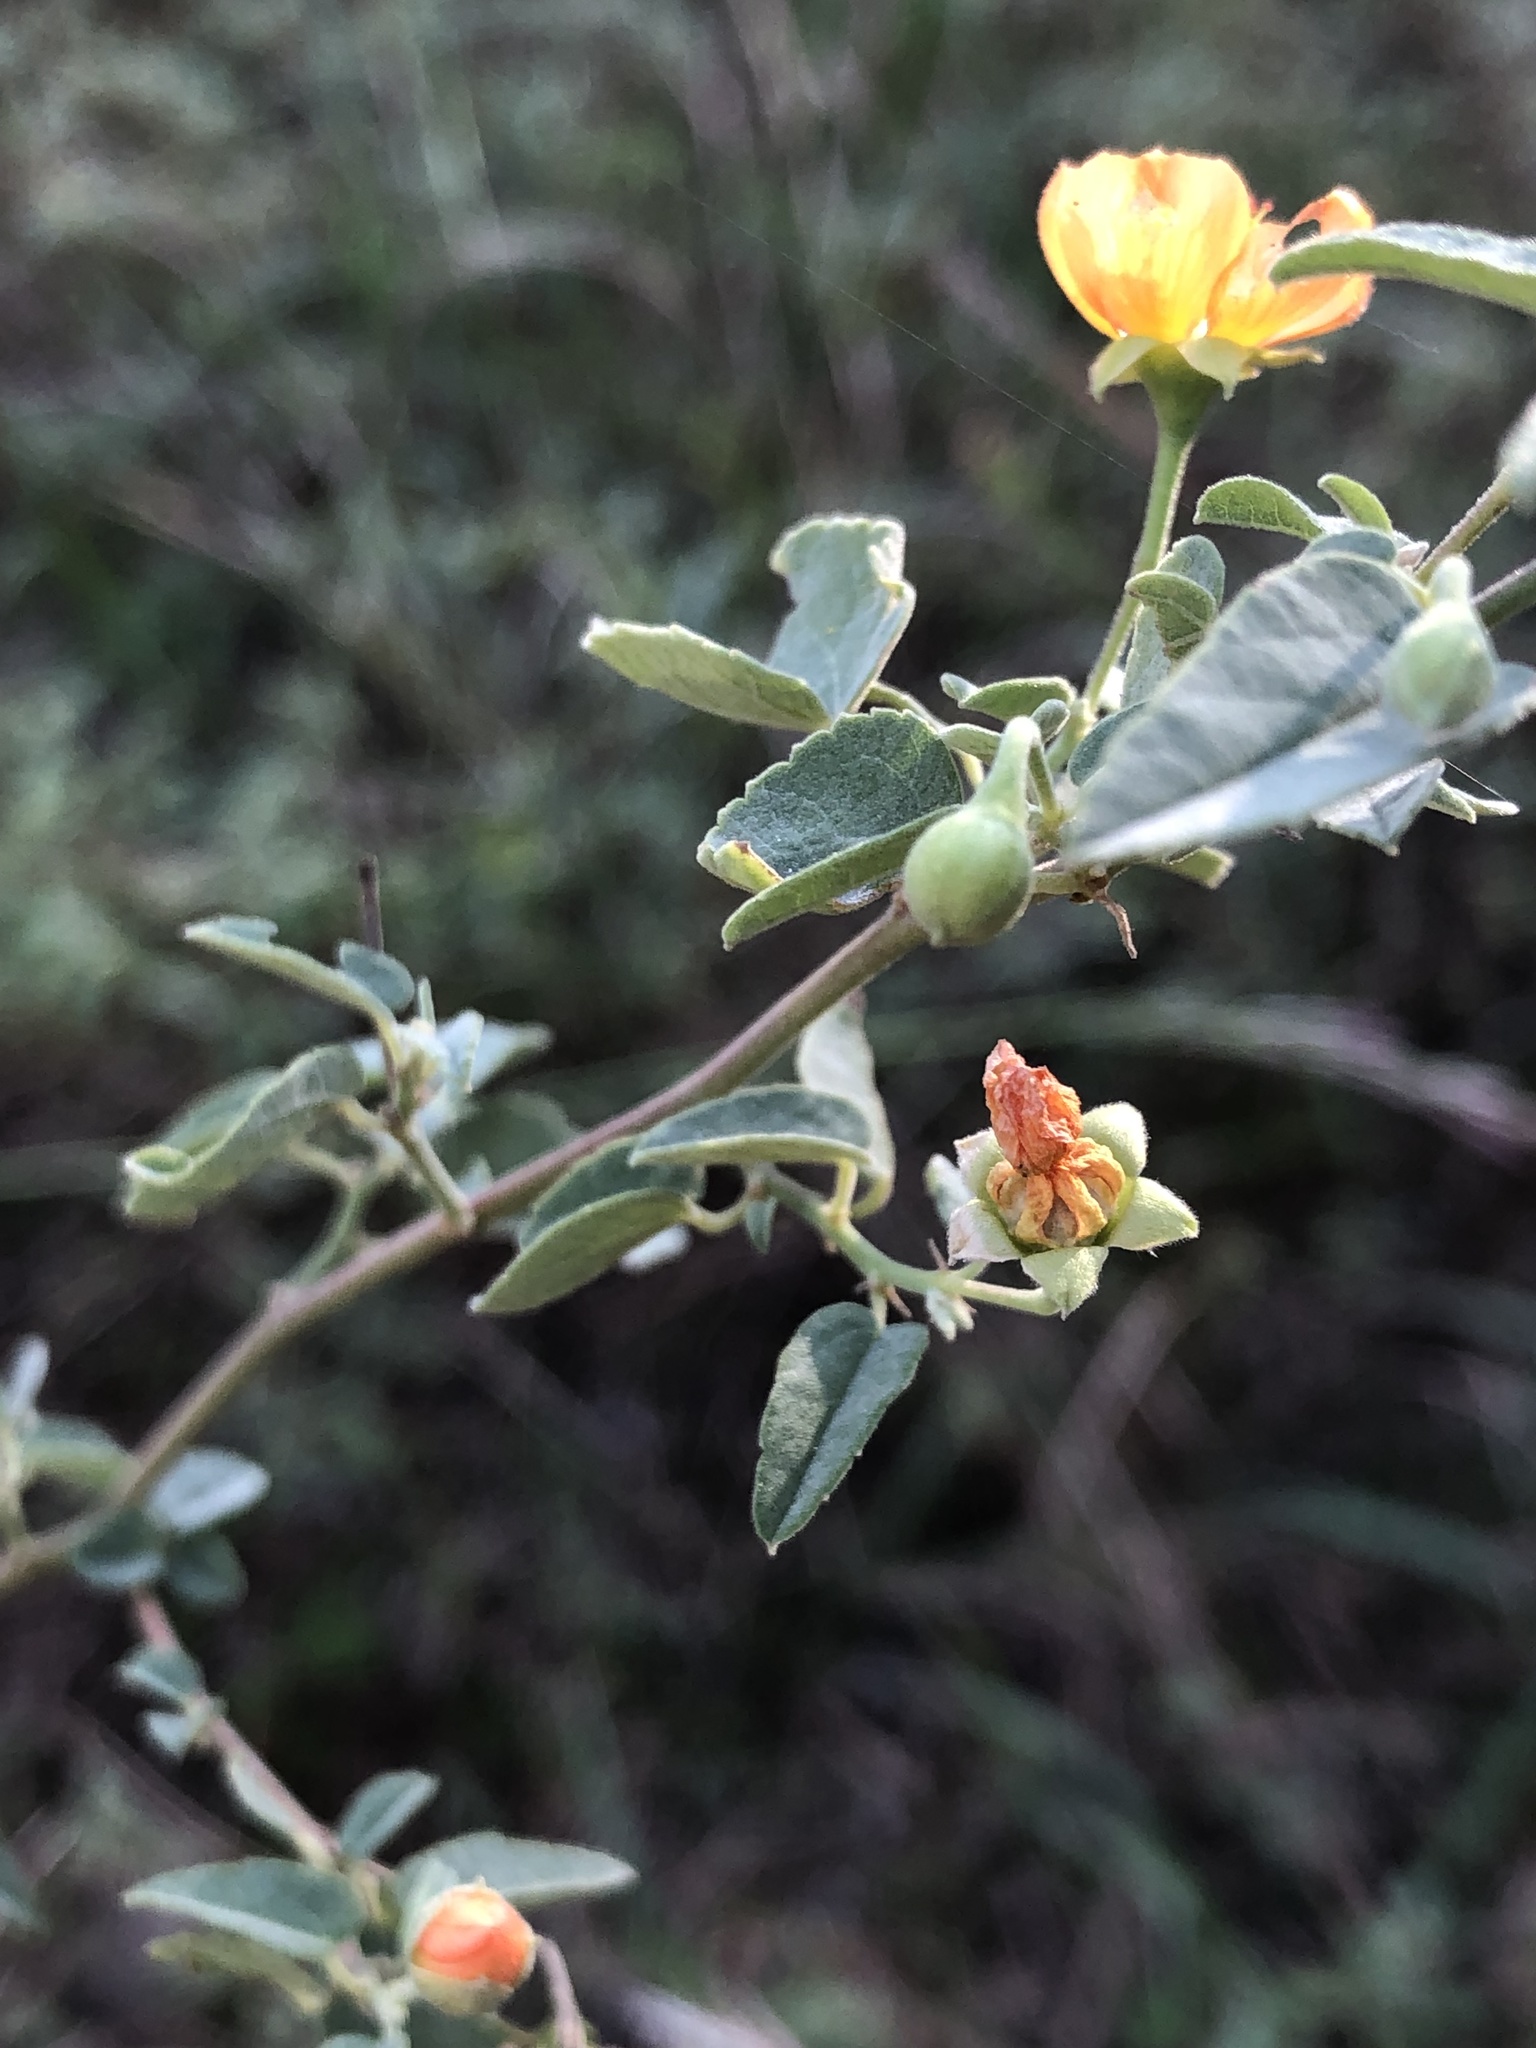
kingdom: Plantae
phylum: Tracheophyta
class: Magnoliopsida
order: Malvales
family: Malvaceae
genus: Abutilon
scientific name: Abutilon fruticosum
